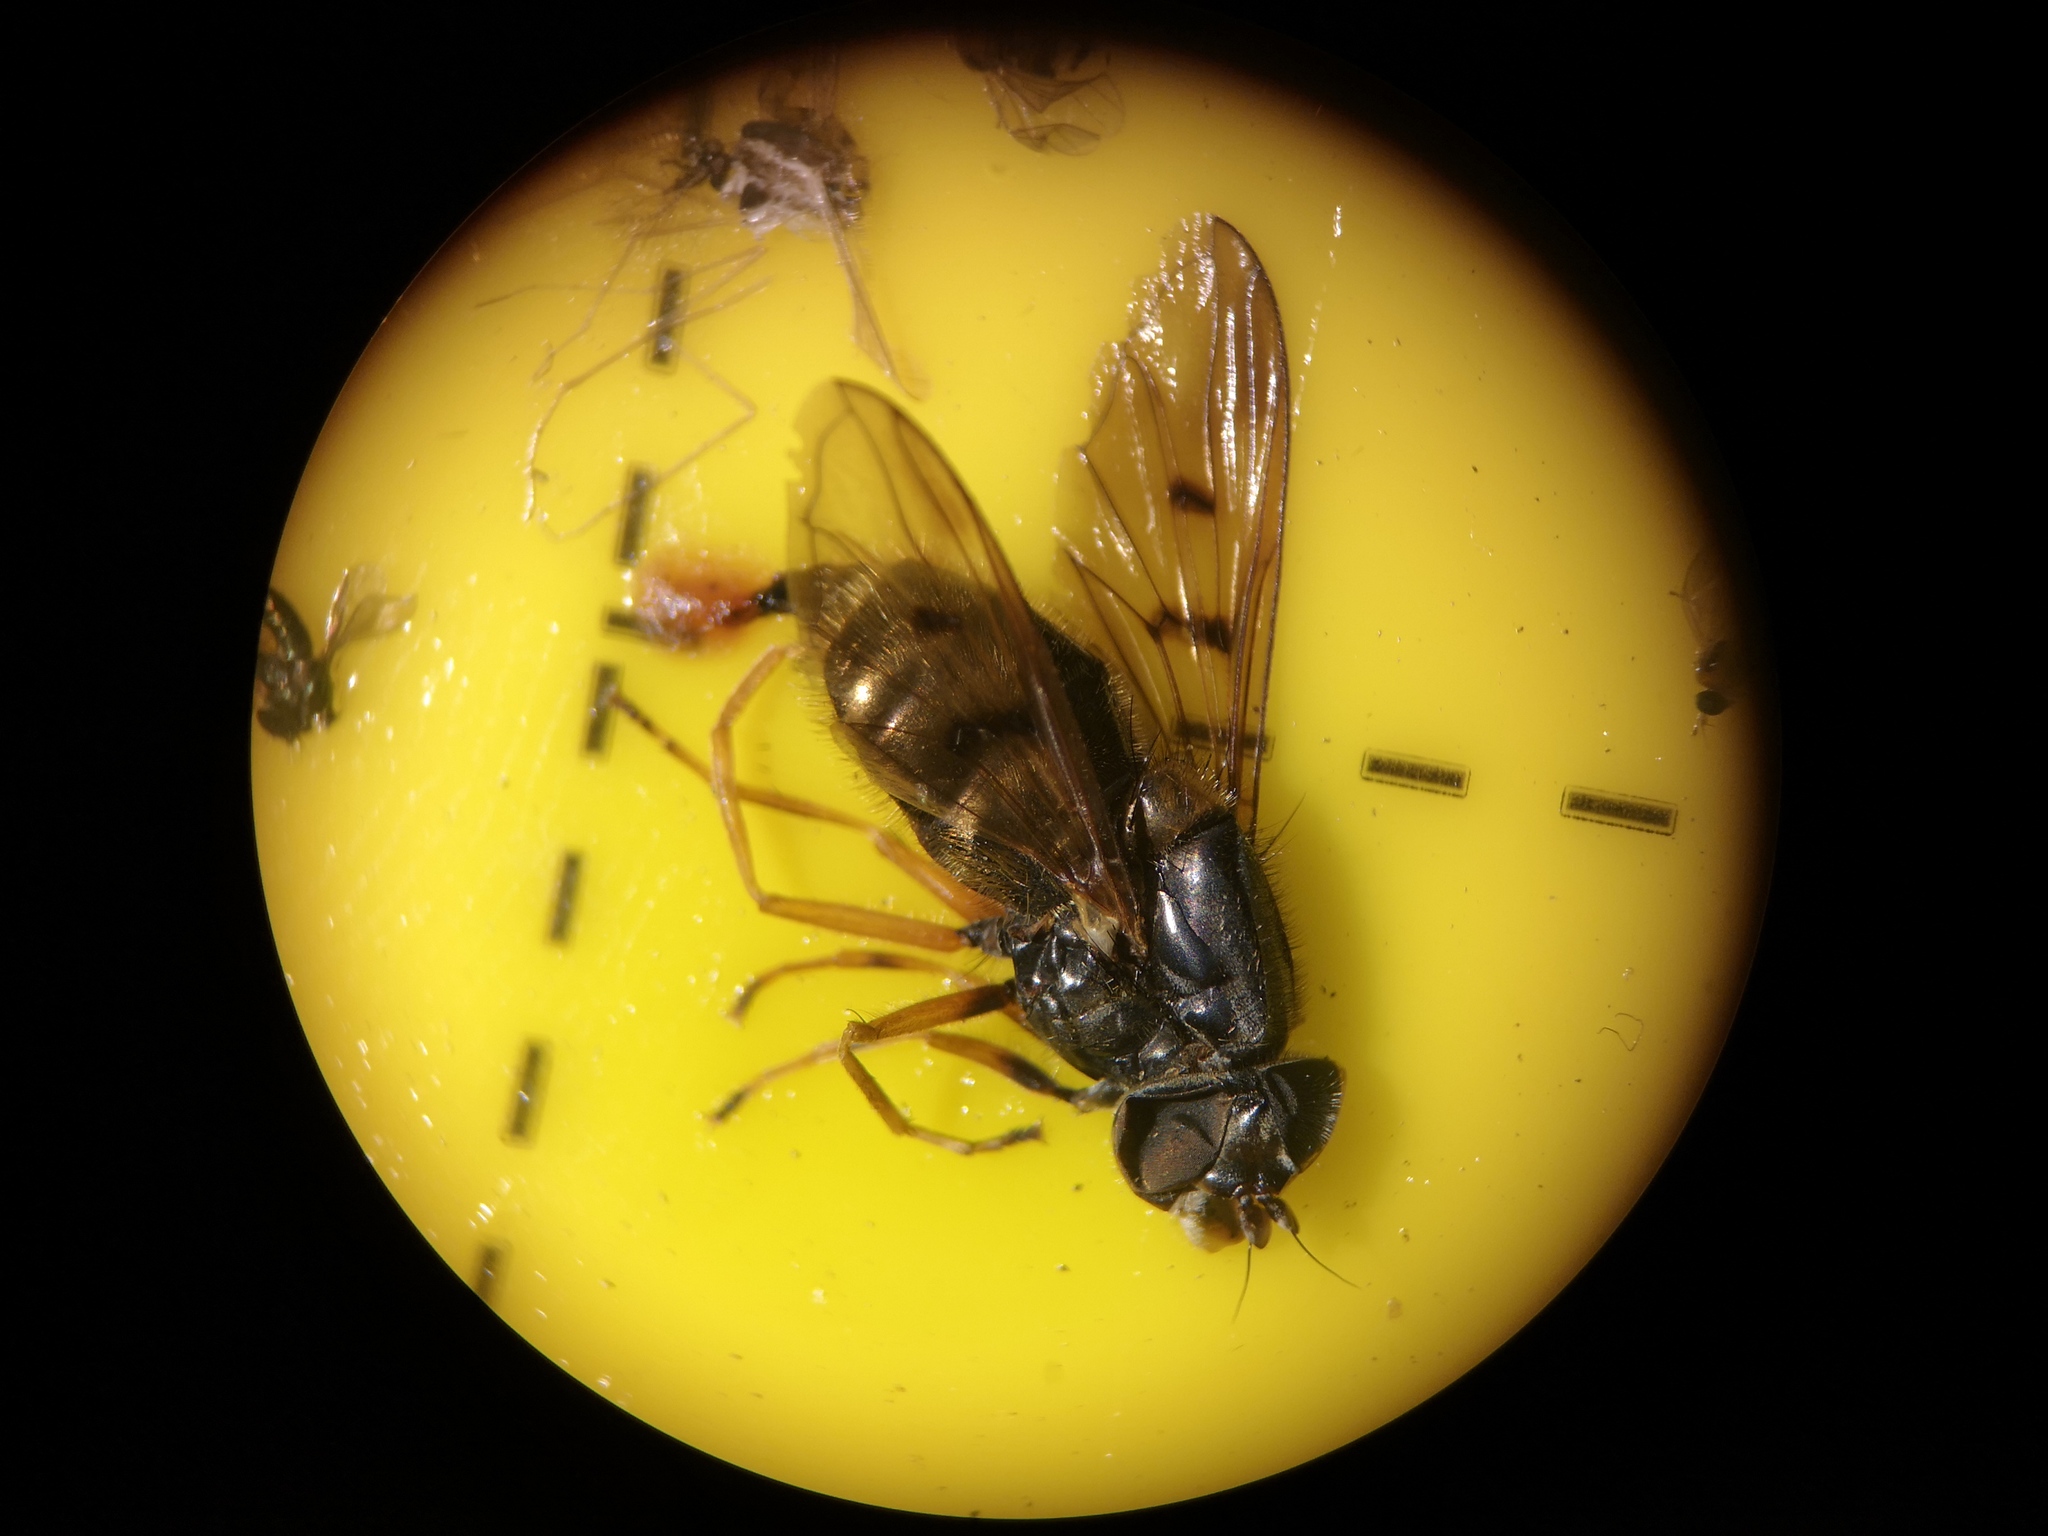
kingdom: Animalia
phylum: Arthropoda
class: Insecta
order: Diptera
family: Syrphidae
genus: Ferdinandea
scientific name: Ferdinandea cuprea
